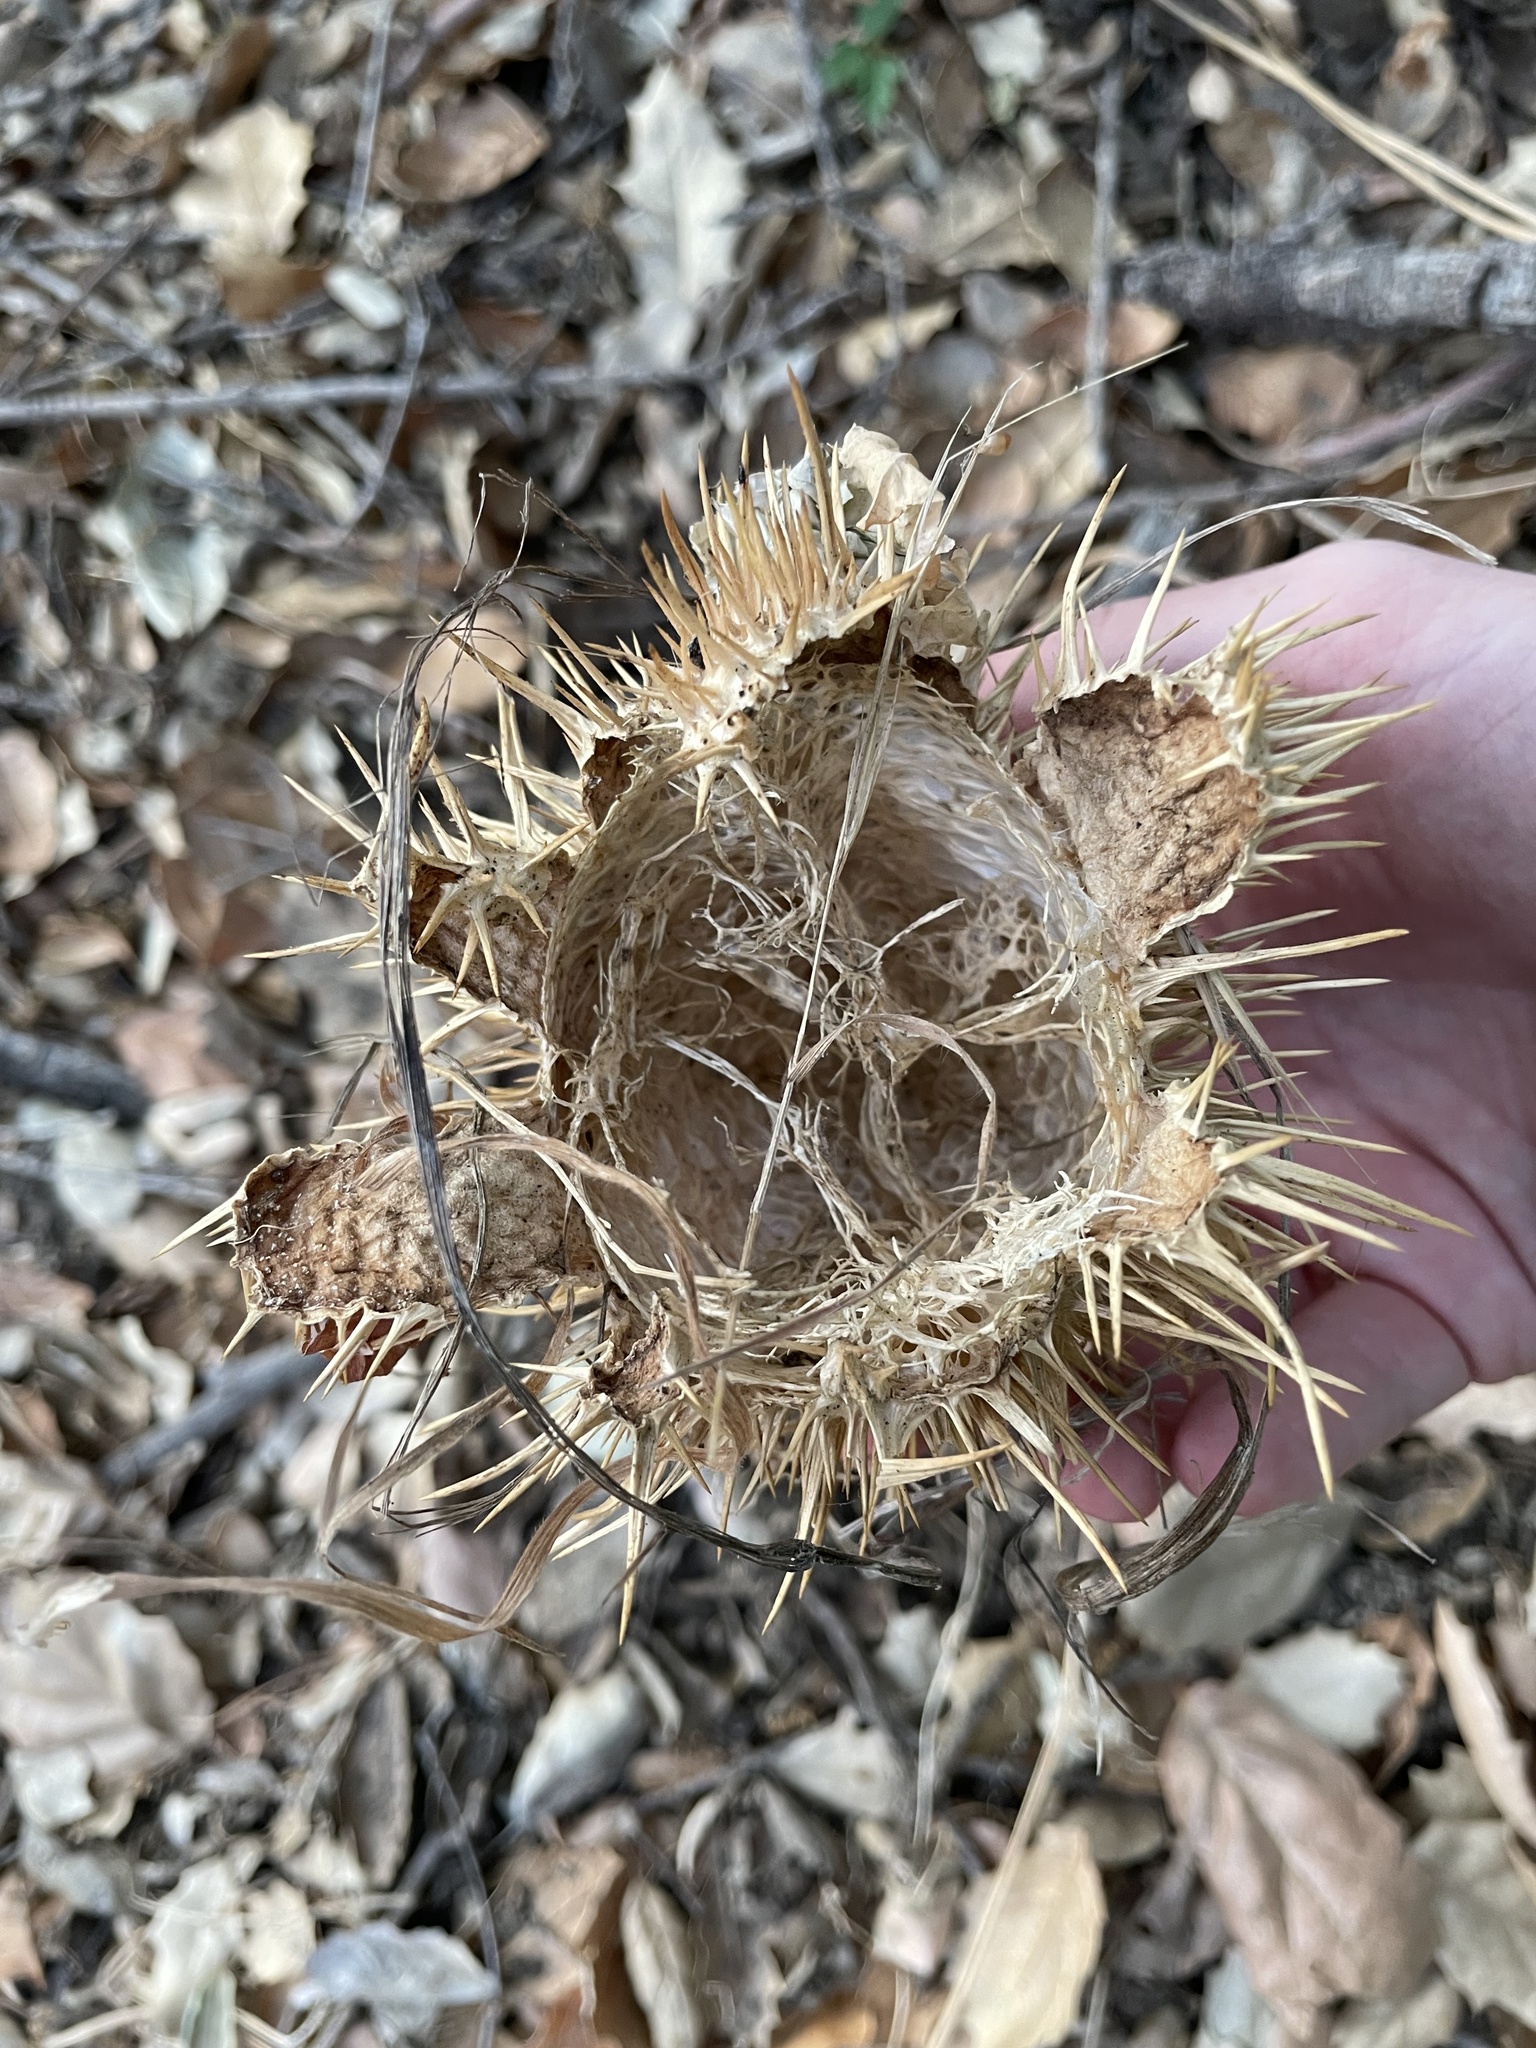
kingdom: Plantae
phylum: Tracheophyta
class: Magnoliopsida
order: Cucurbitales
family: Cucurbitaceae
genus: Marah
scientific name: Marah macrocarpa
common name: Cucamonga manroot
